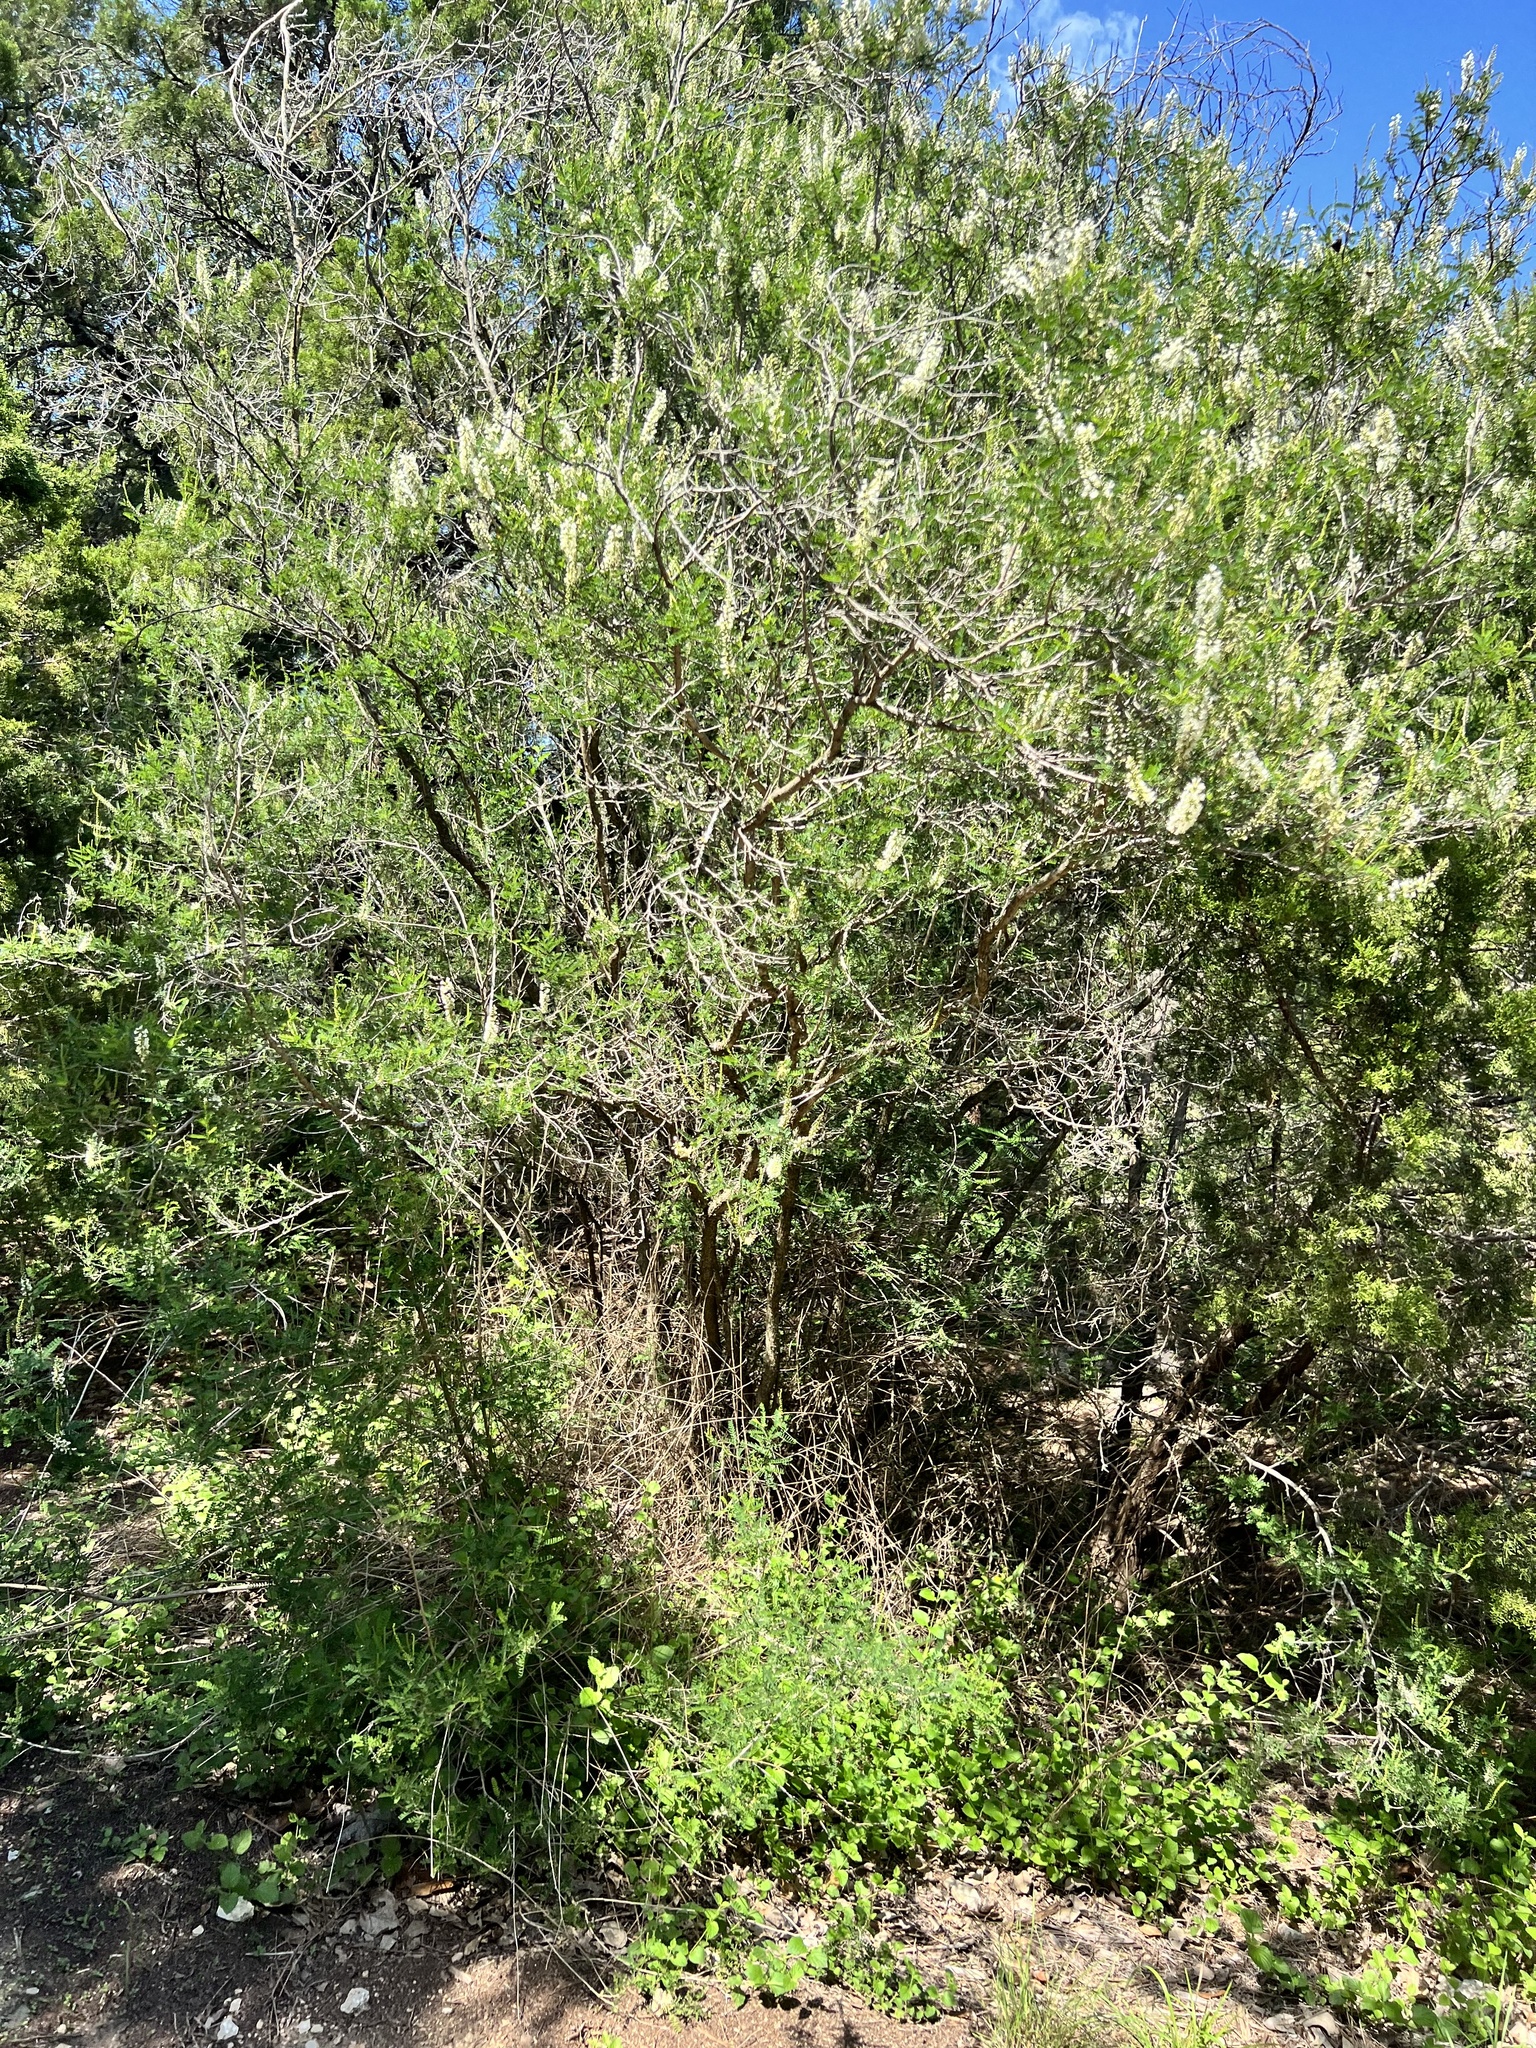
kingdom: Plantae
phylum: Tracheophyta
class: Magnoliopsida
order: Fabales
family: Fabaceae
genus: Eysenhardtia
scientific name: Eysenhardtia texana
